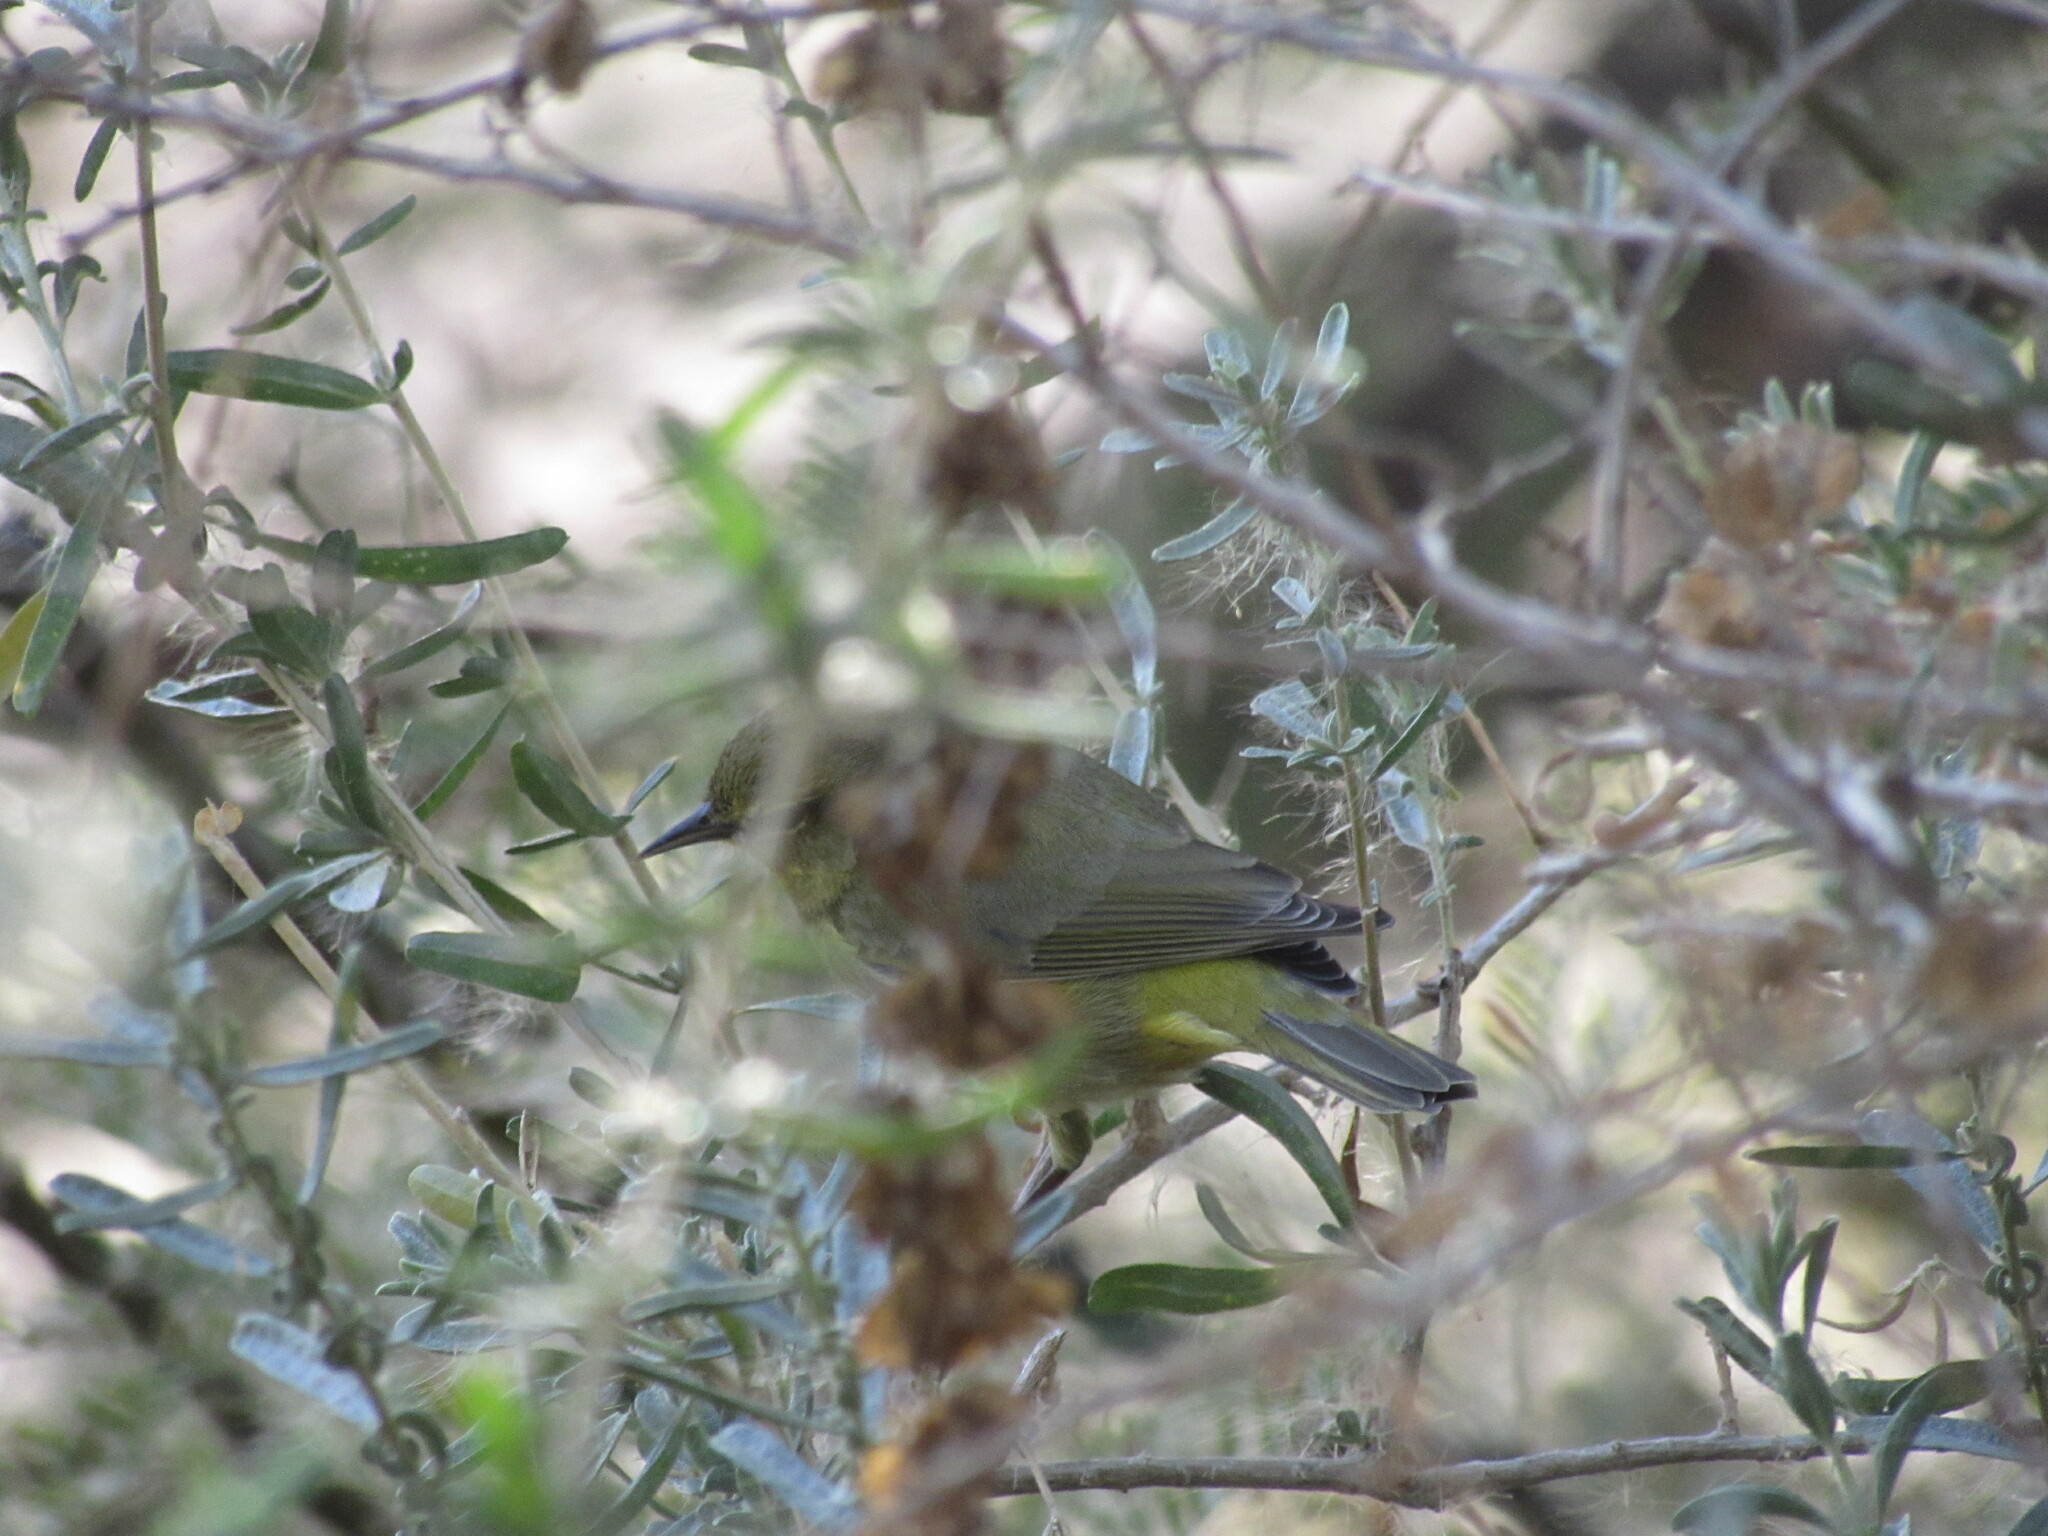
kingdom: Animalia
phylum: Chordata
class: Aves
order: Passeriformes
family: Parulidae
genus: Leiothlypis
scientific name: Leiothlypis celata
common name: Orange-crowned warbler
